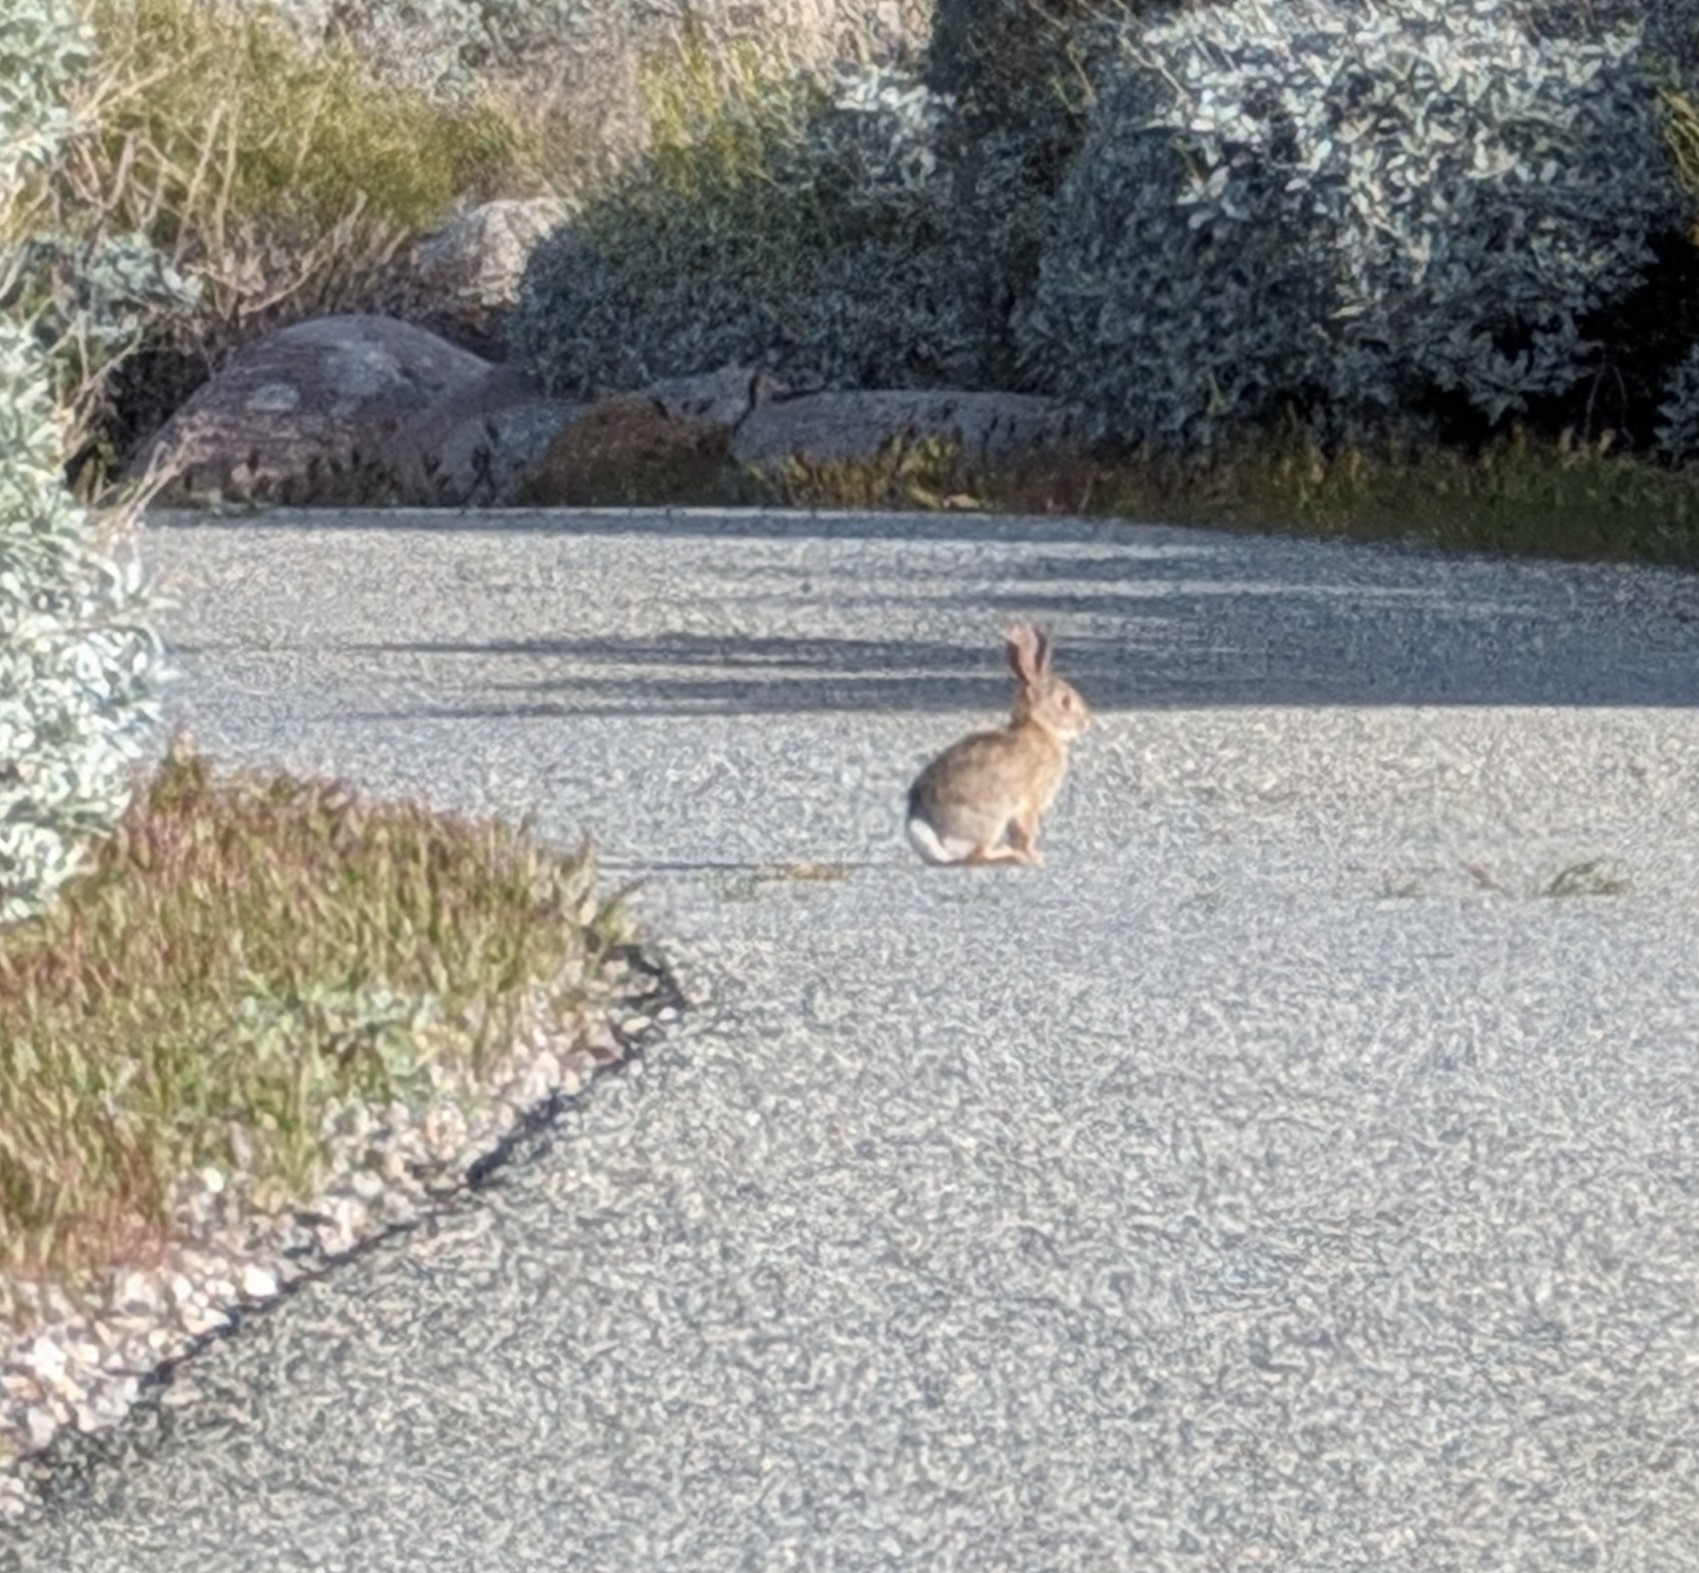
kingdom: Animalia
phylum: Chordata
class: Mammalia
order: Lagomorpha
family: Leporidae
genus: Sylvilagus
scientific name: Sylvilagus audubonii
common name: Desert cottontail
